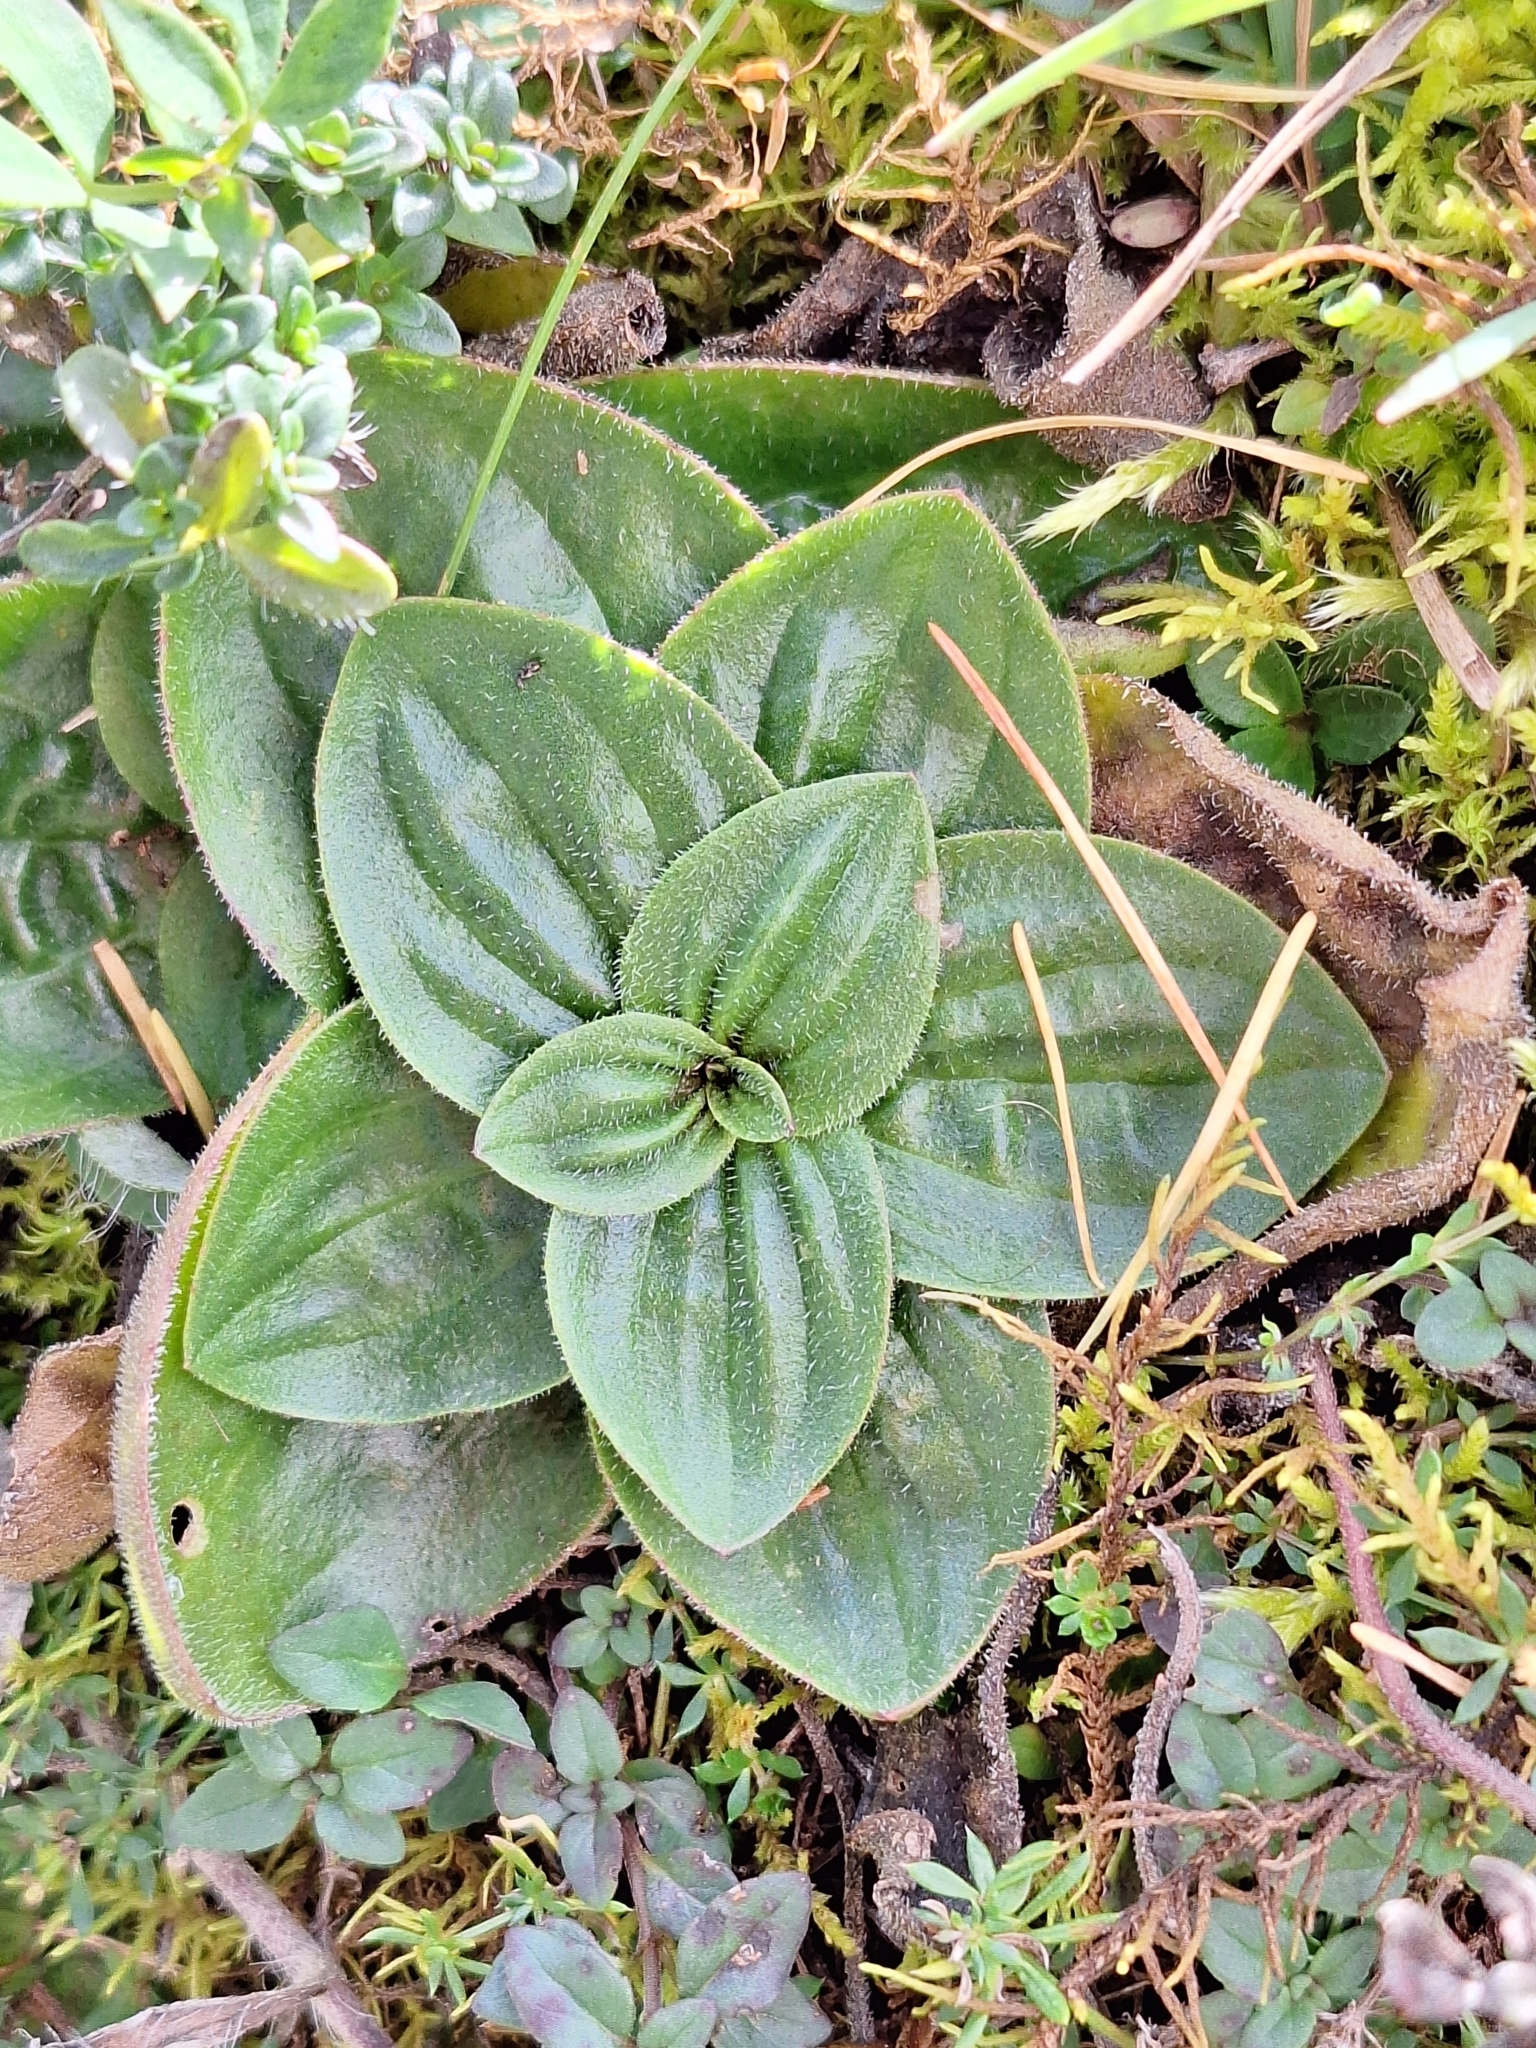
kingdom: Plantae
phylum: Tracheophyta
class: Magnoliopsida
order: Lamiales
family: Plantaginaceae
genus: Plantago
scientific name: Plantago media
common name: Hoary plantain
